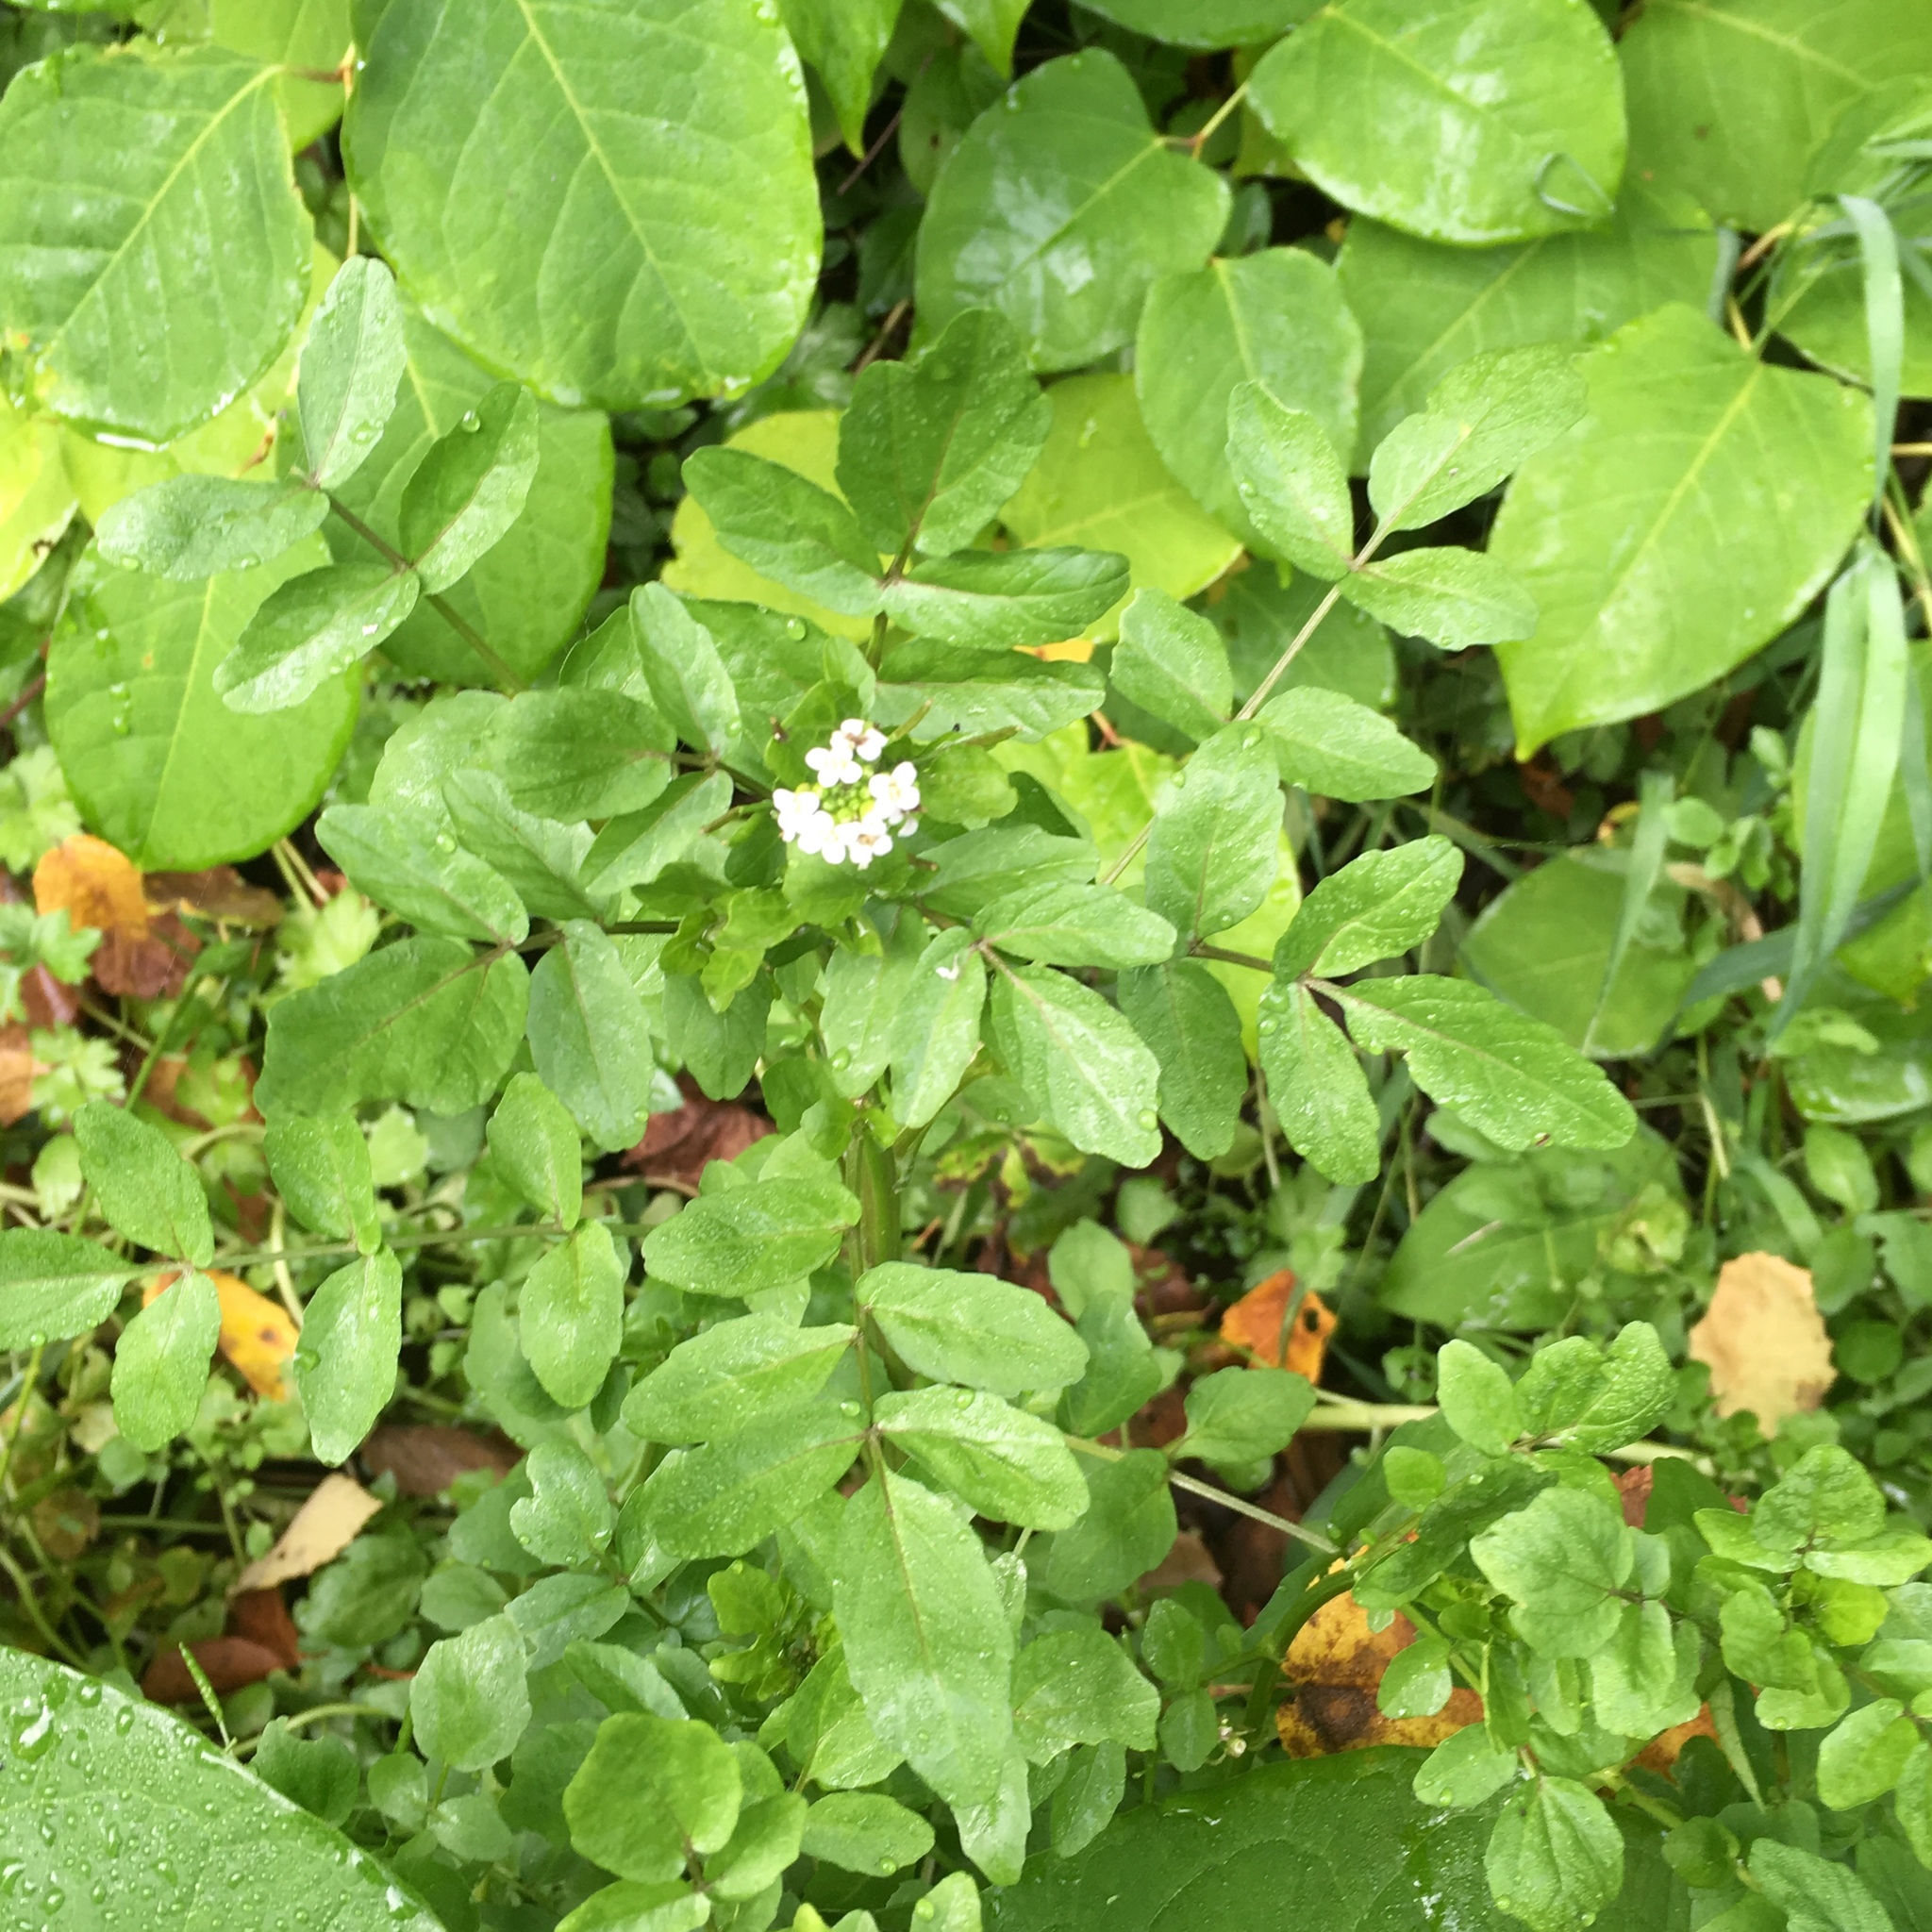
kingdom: Plantae
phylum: Tracheophyta
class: Magnoliopsida
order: Brassicales
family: Brassicaceae
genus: Nasturtium
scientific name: Nasturtium officinale
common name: Watercress
